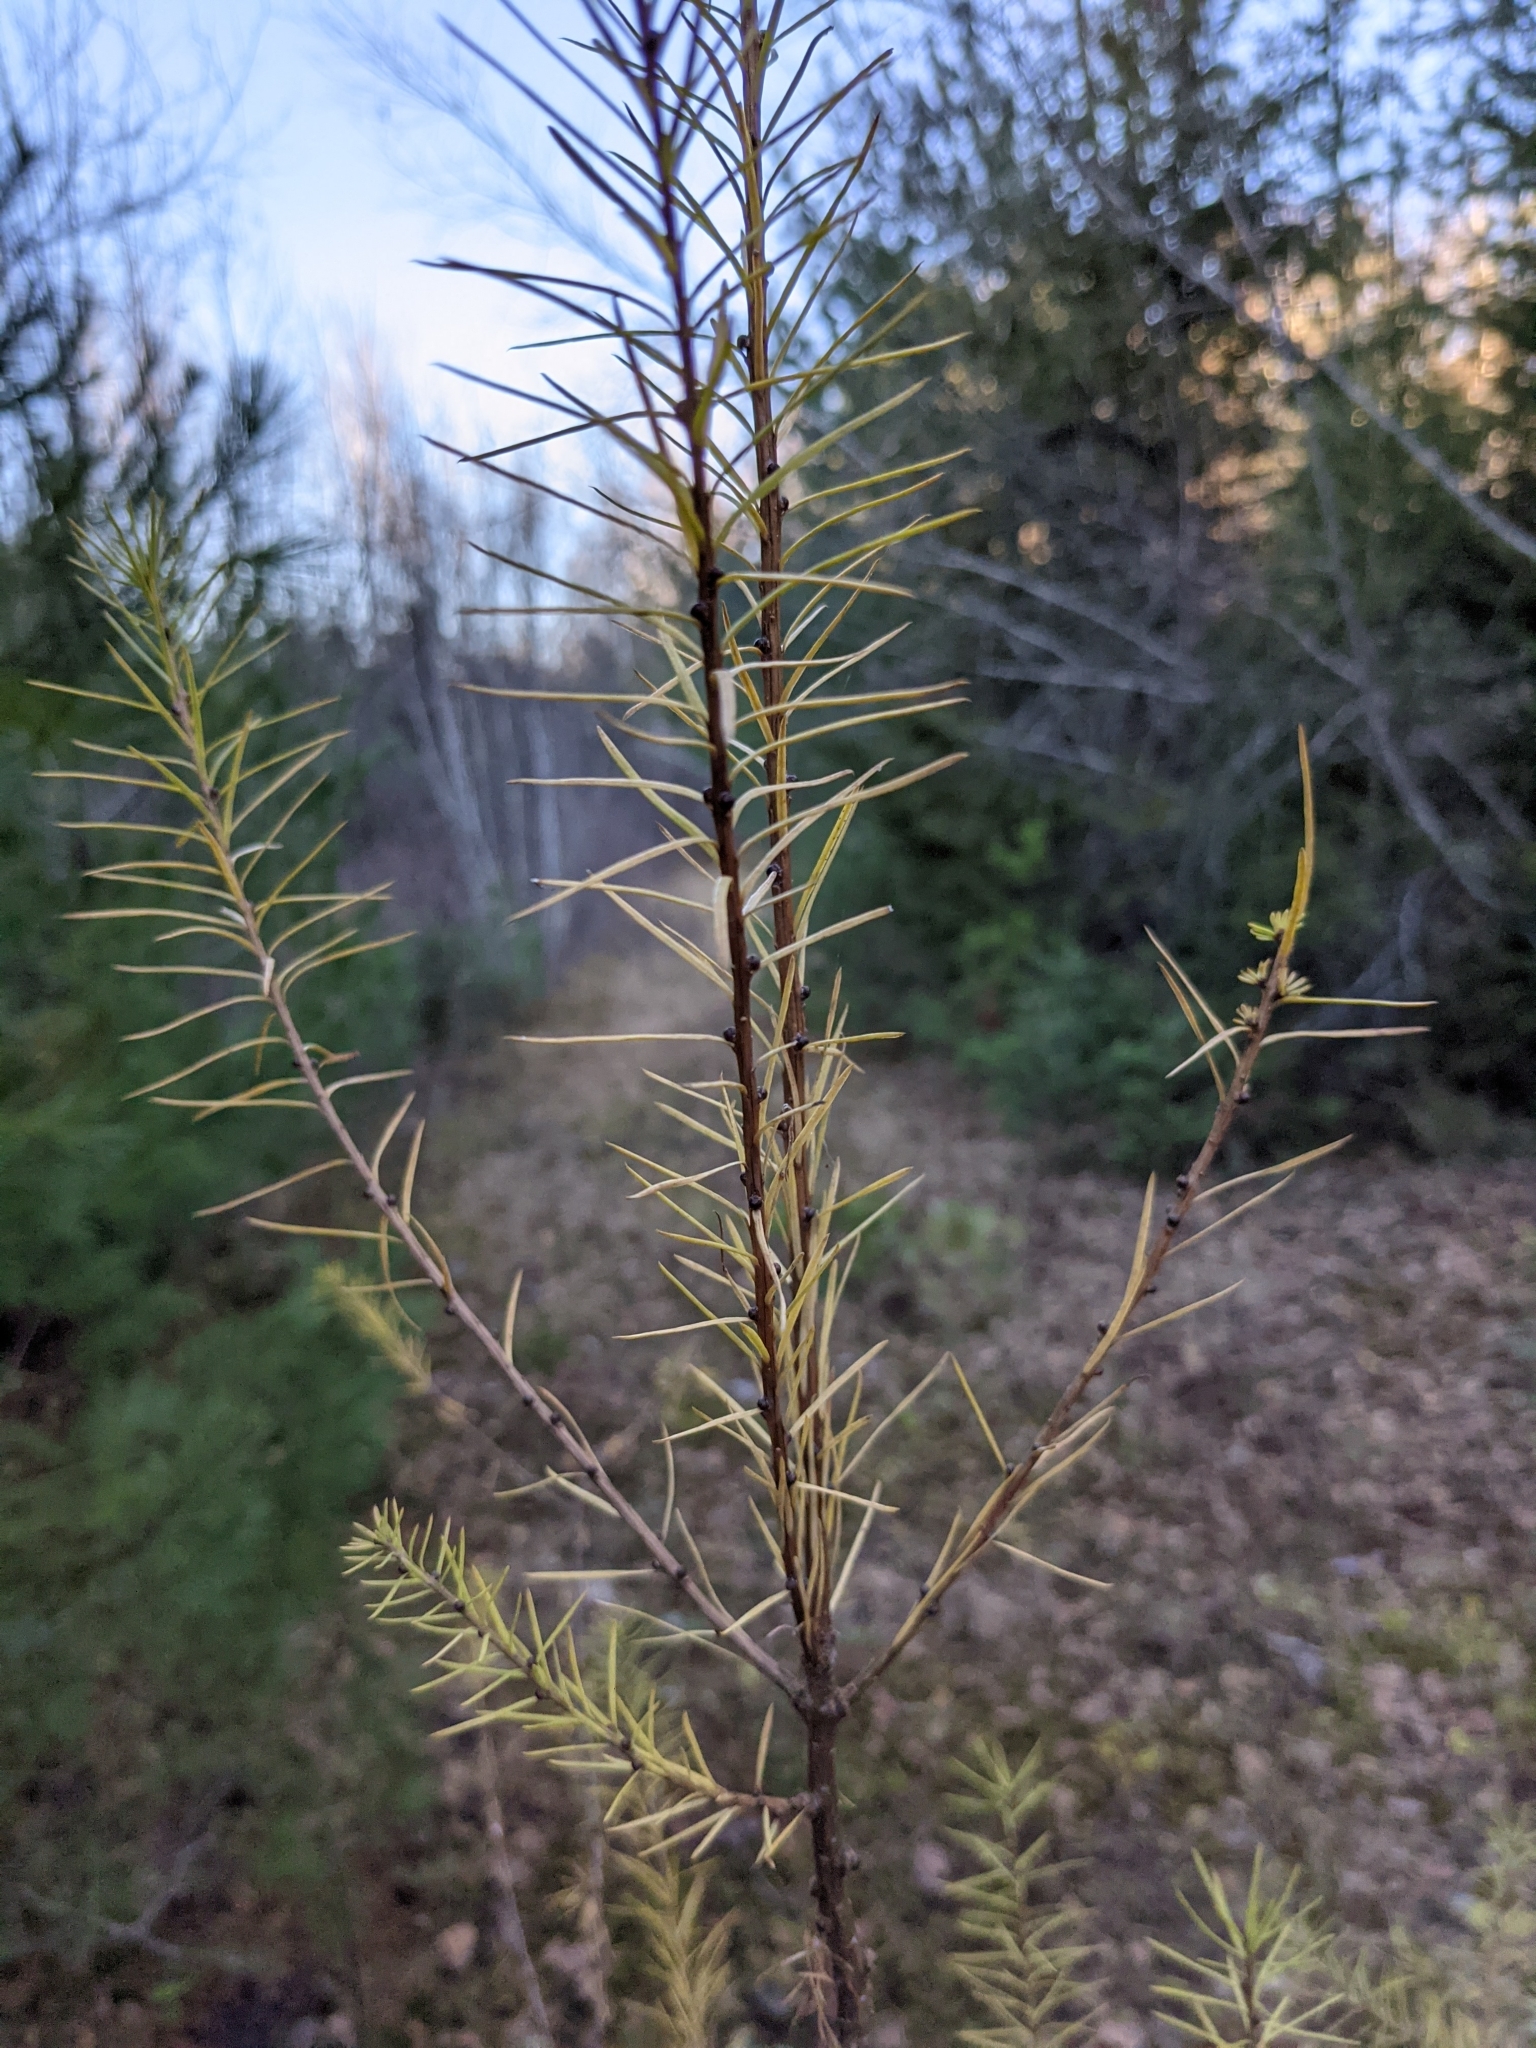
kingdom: Plantae
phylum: Tracheophyta
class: Pinopsida
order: Pinales
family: Pinaceae
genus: Larix
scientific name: Larix laricina
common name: American larch
